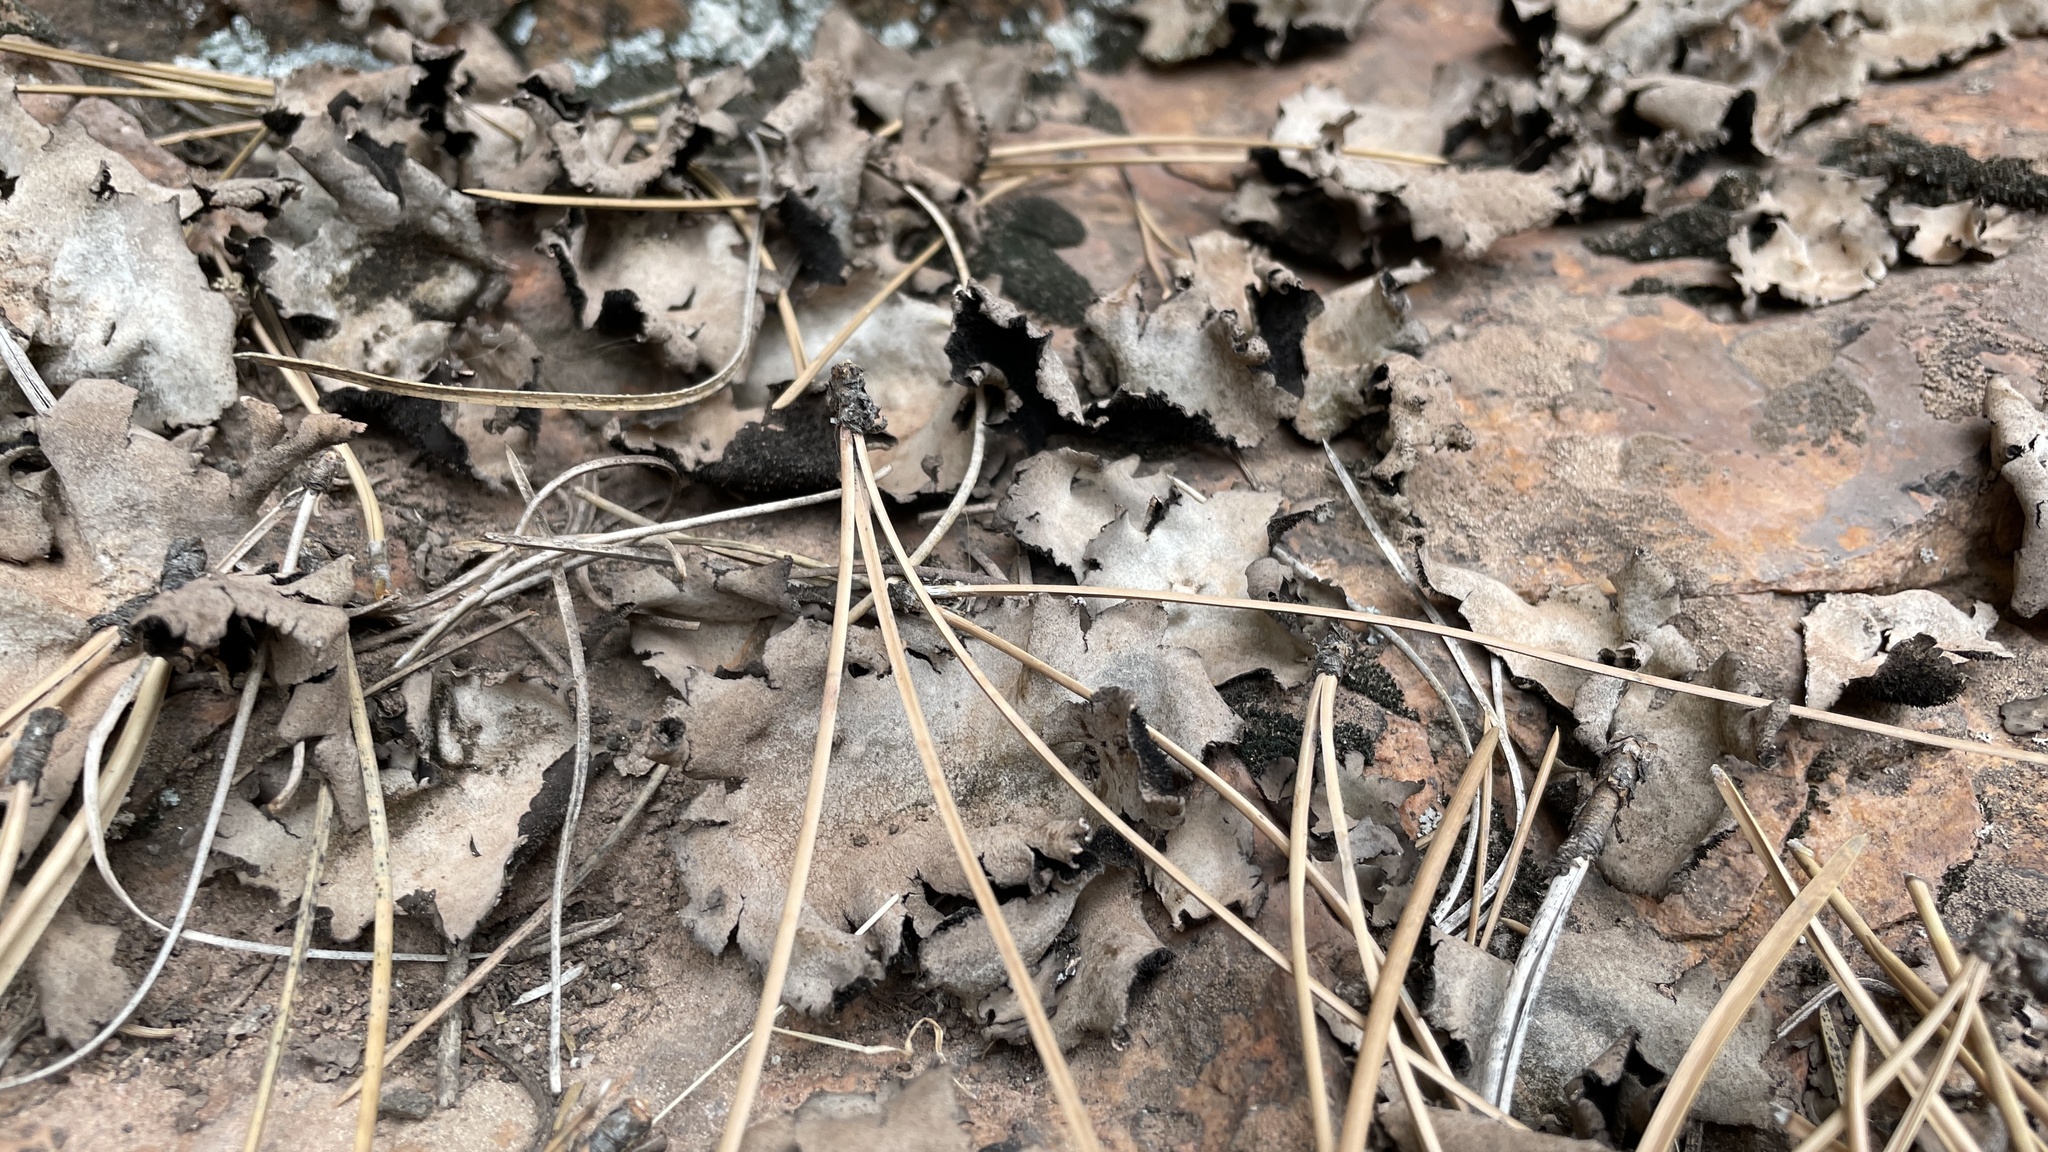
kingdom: Fungi
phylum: Ascomycota
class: Lecanoromycetes
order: Umbilicariales
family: Umbilicariaceae
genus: Umbilicaria
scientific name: Umbilicaria americana
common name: Frosted rock tripe
